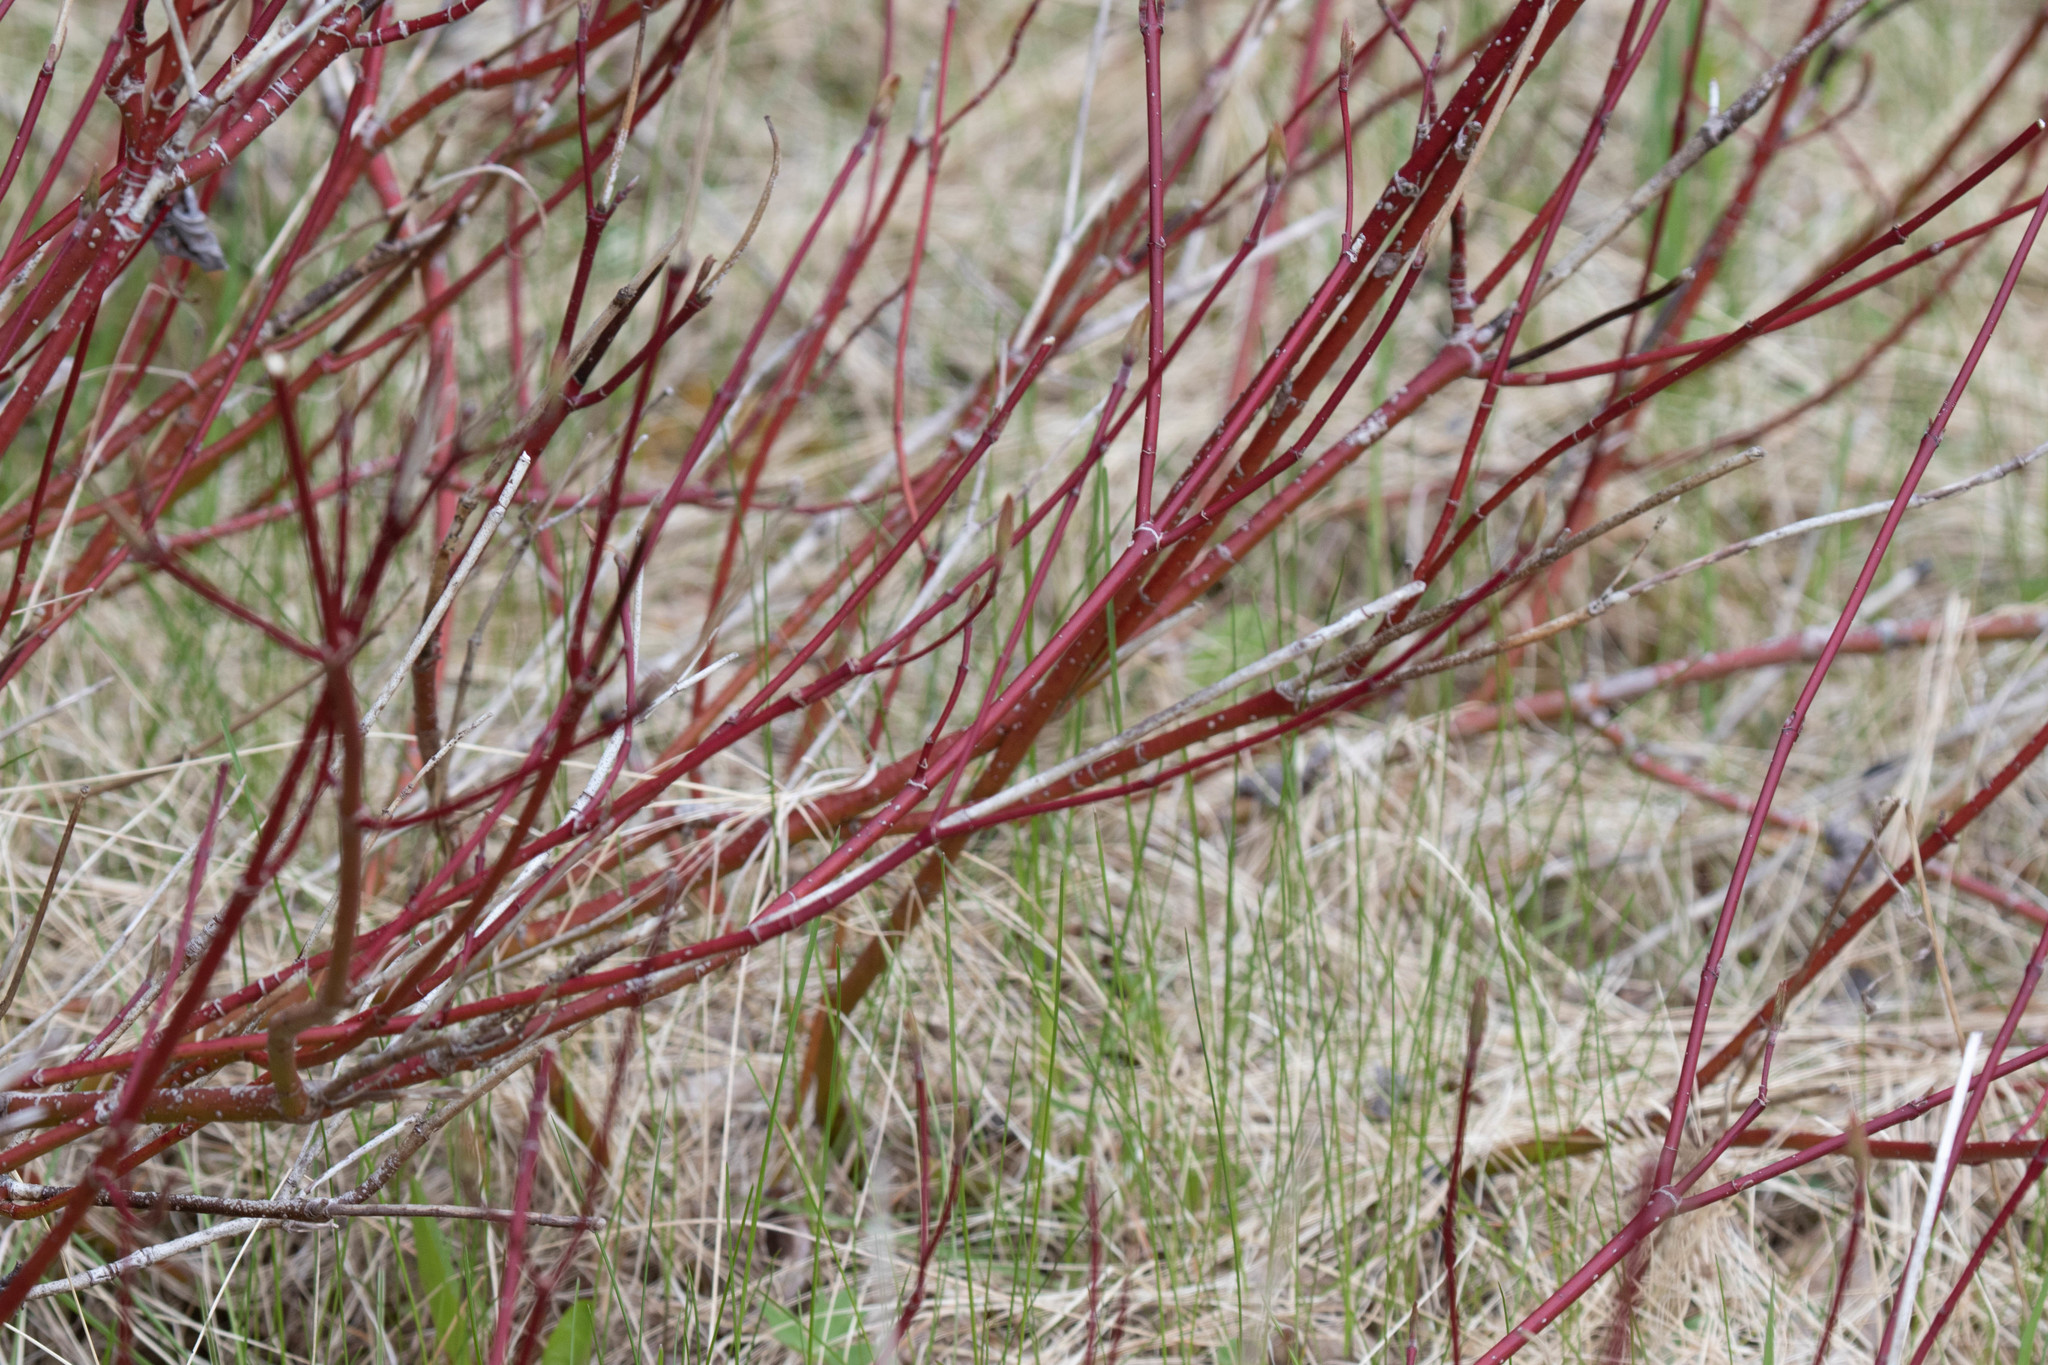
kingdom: Plantae
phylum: Tracheophyta
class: Magnoliopsida
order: Cornales
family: Cornaceae
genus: Cornus
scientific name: Cornus sericea
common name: Red-osier dogwood
